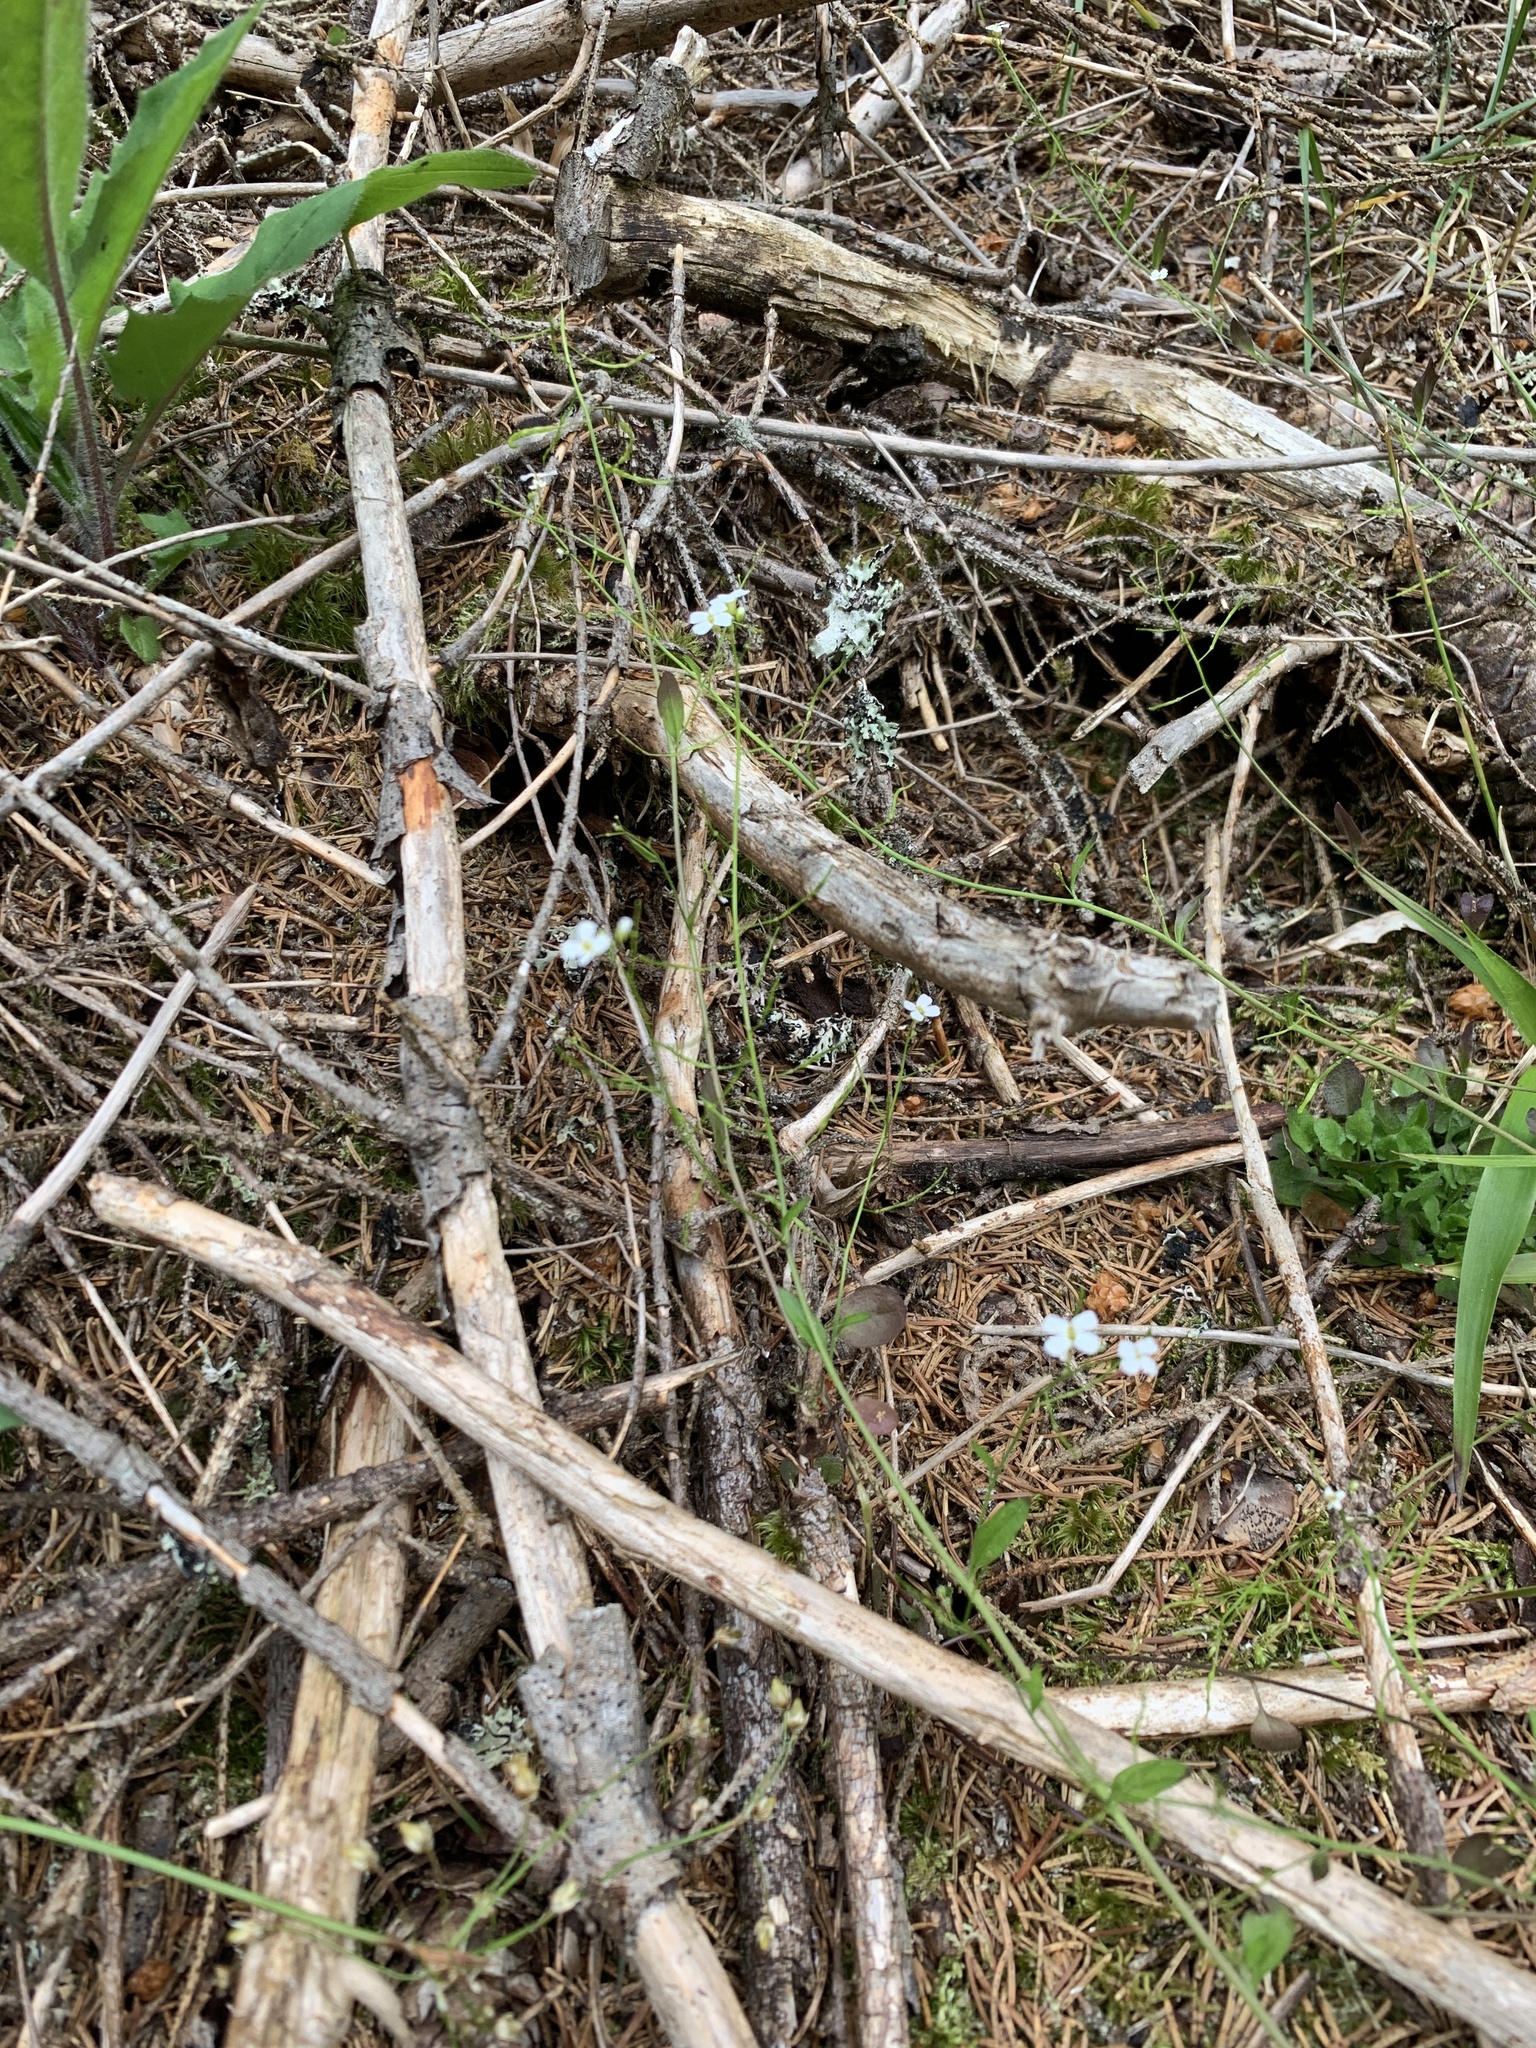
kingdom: Plantae
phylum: Tracheophyta
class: Magnoliopsida
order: Brassicales
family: Brassicaceae
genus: Arabidopsis
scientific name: Arabidopsis halleri
